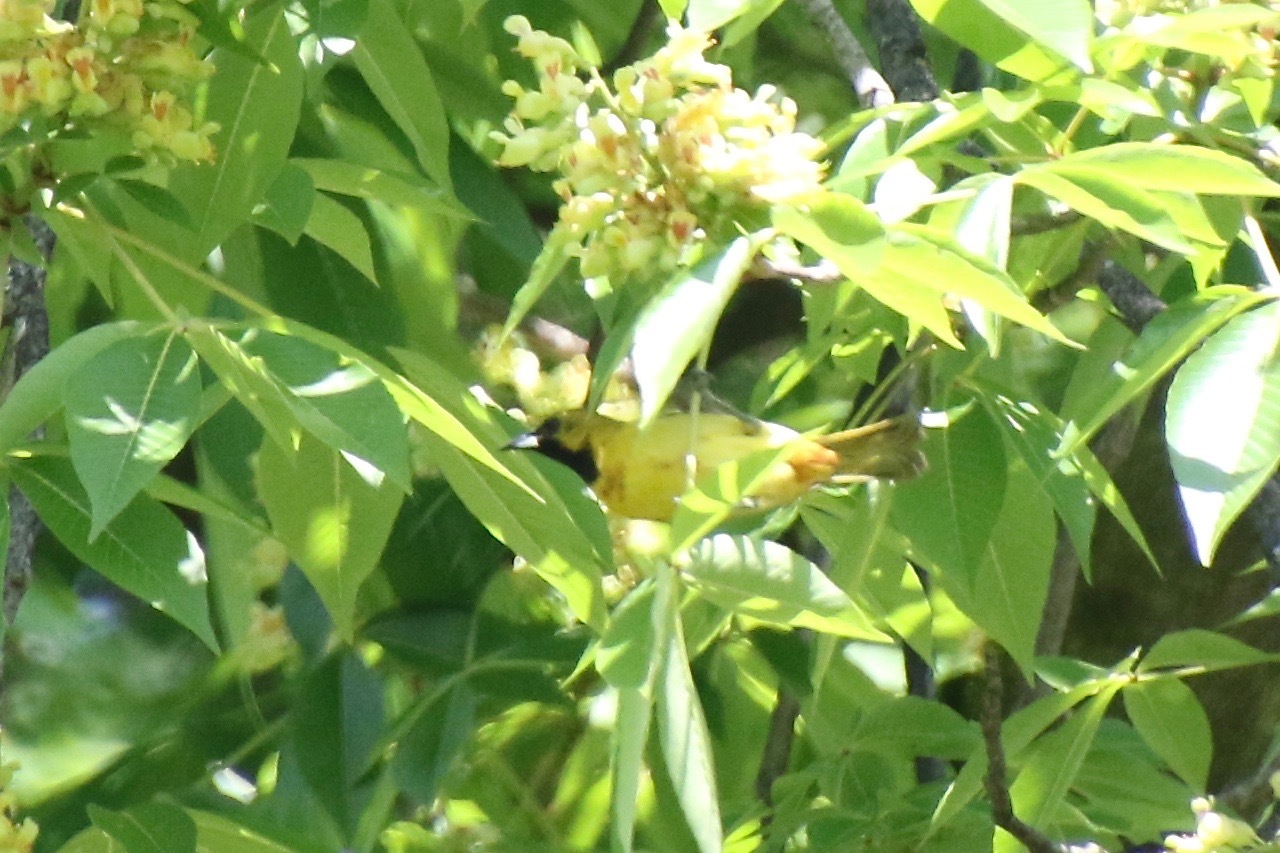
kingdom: Animalia
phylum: Chordata
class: Aves
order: Passeriformes
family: Icteridae
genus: Icterus
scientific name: Icterus spurius
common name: Orchard oriole
